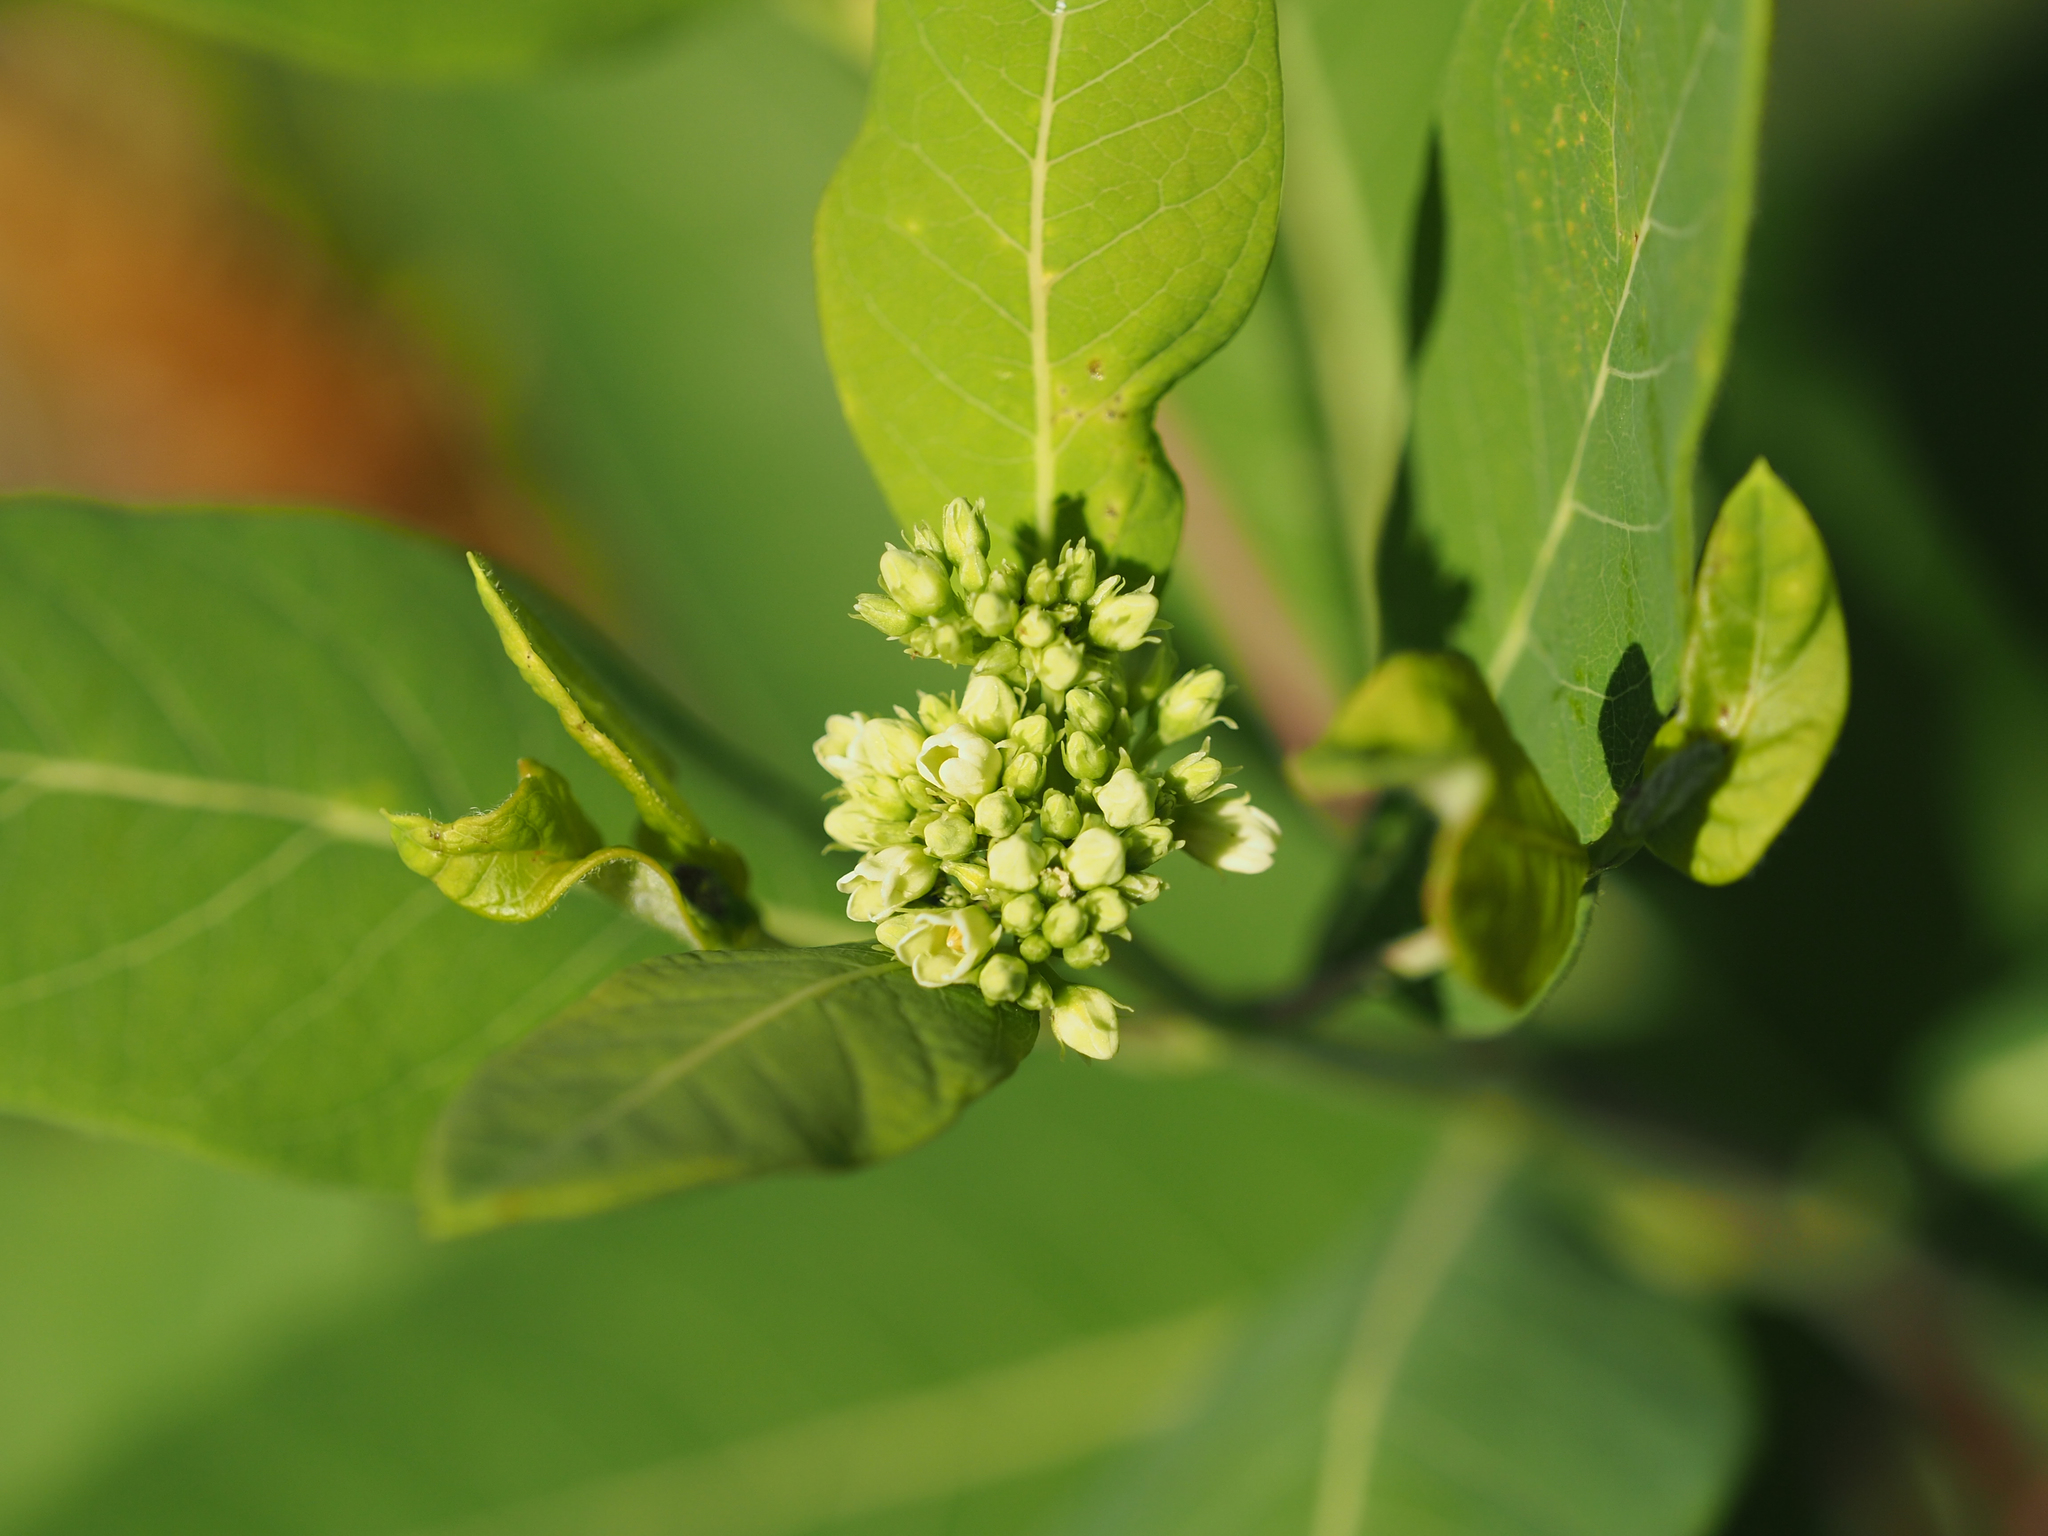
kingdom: Plantae
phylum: Tracheophyta
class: Magnoliopsida
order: Gentianales
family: Apocynaceae
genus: Apocynum
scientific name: Apocynum cannabinum
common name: Hemp dogbane
